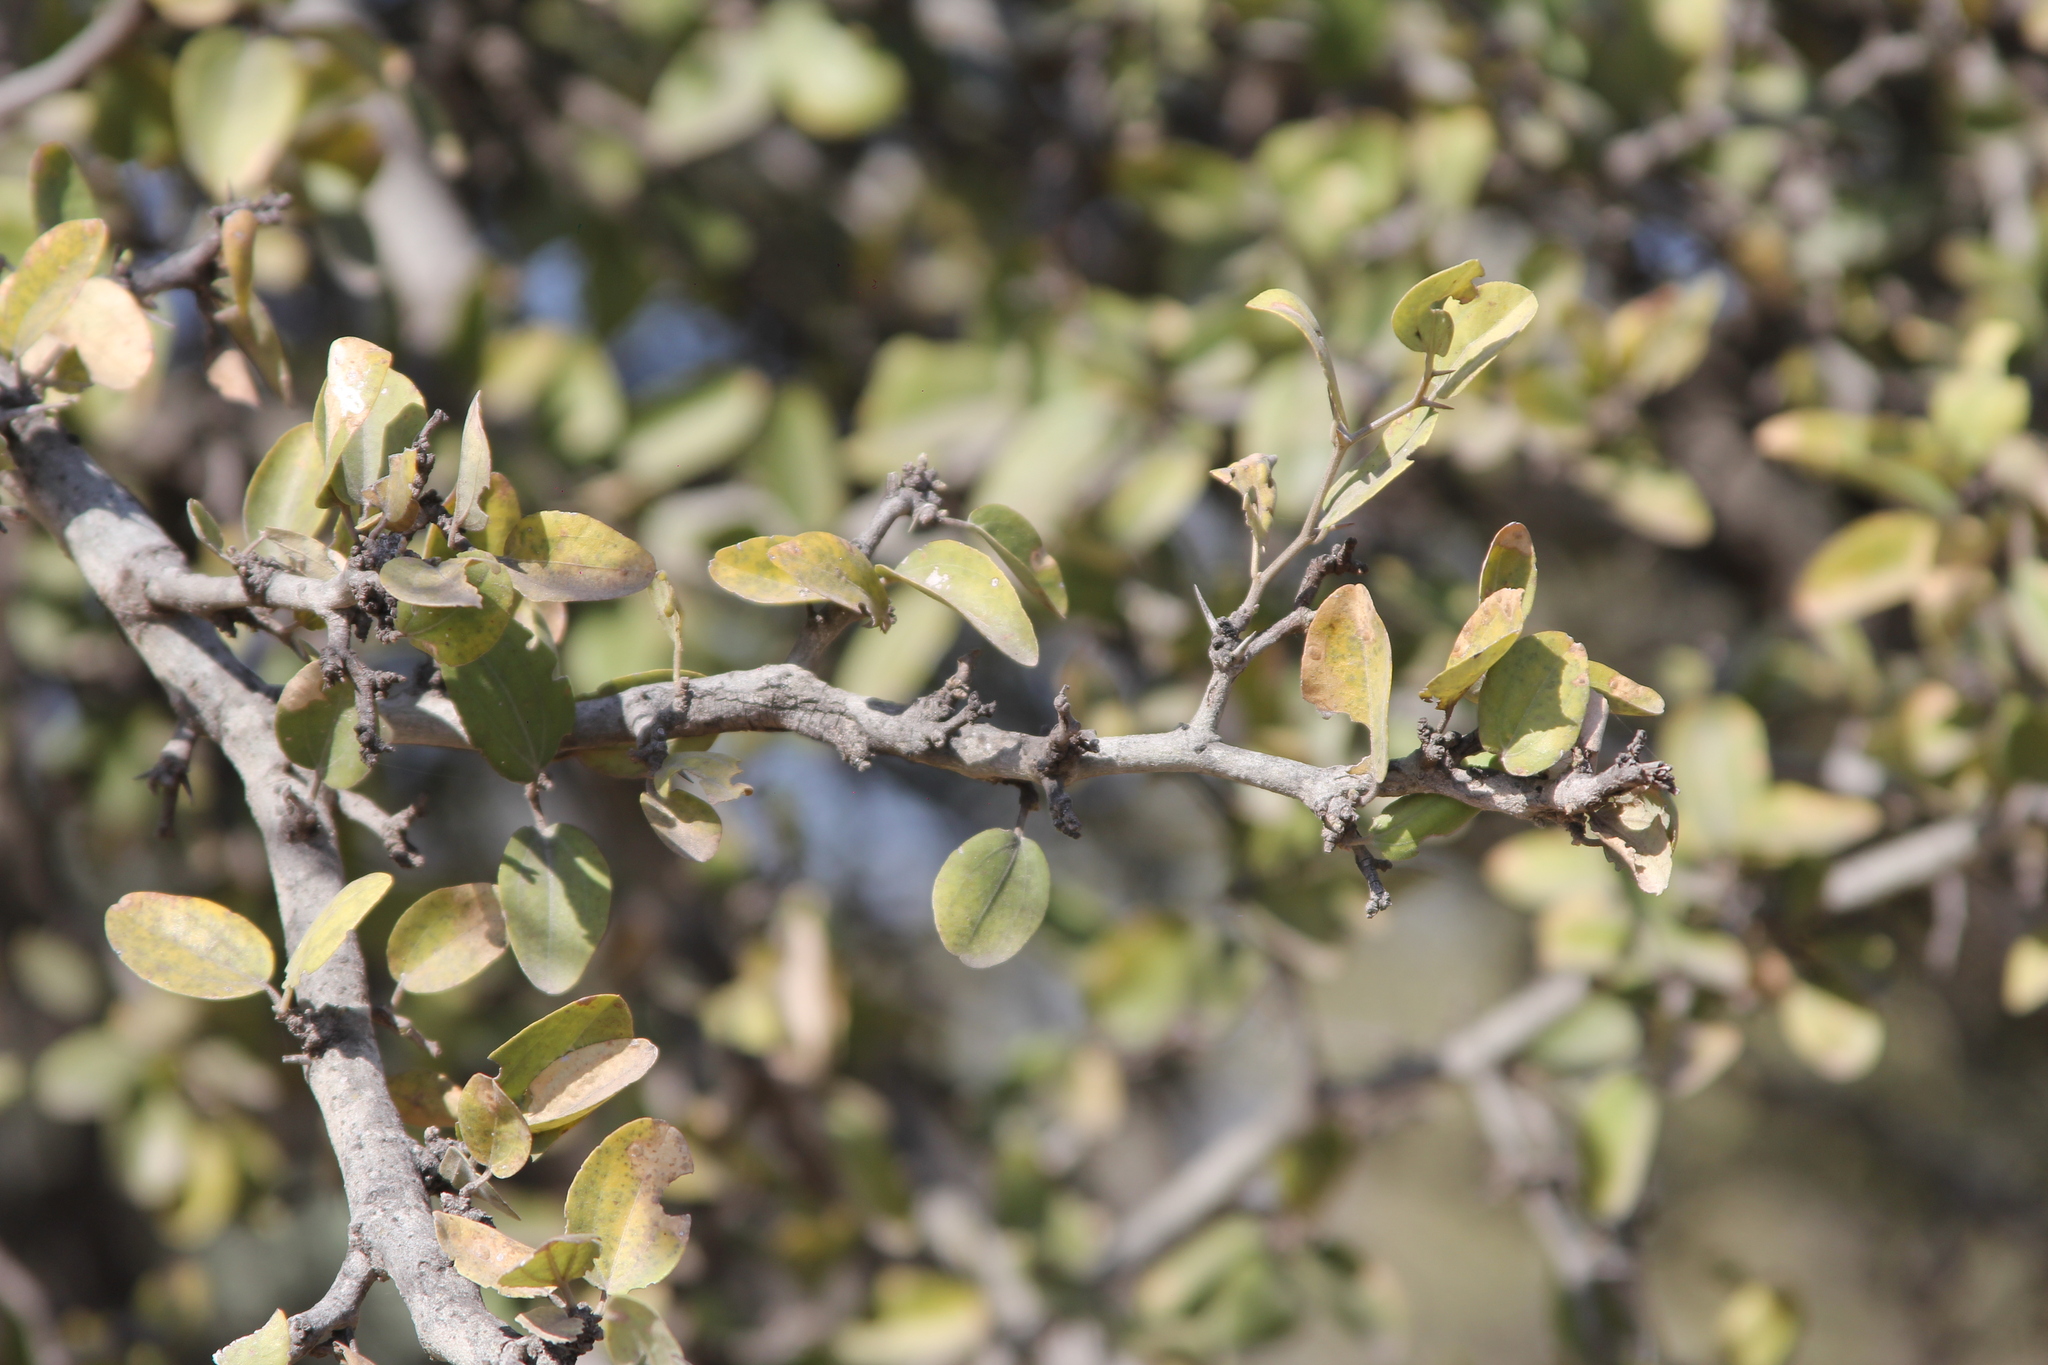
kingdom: Plantae
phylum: Tracheophyta
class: Magnoliopsida
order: Rosales
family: Rhamnaceae
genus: Sarcomphalus
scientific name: Sarcomphalus mistol
